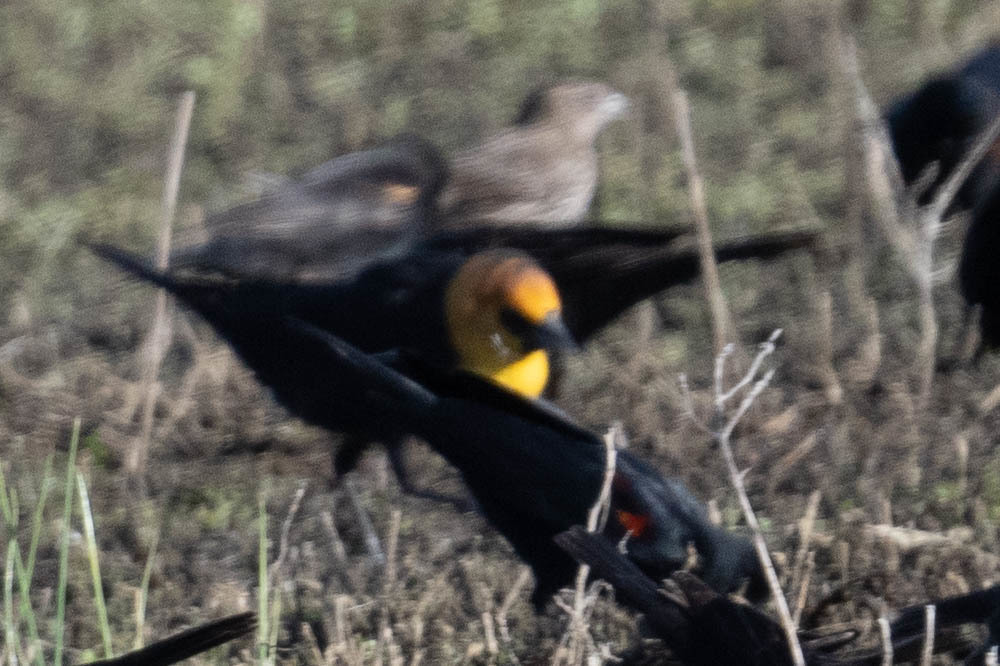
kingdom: Animalia
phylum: Chordata
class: Aves
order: Passeriformes
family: Icteridae
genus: Xanthocephalus
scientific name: Xanthocephalus xanthocephalus
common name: Yellow-headed blackbird
